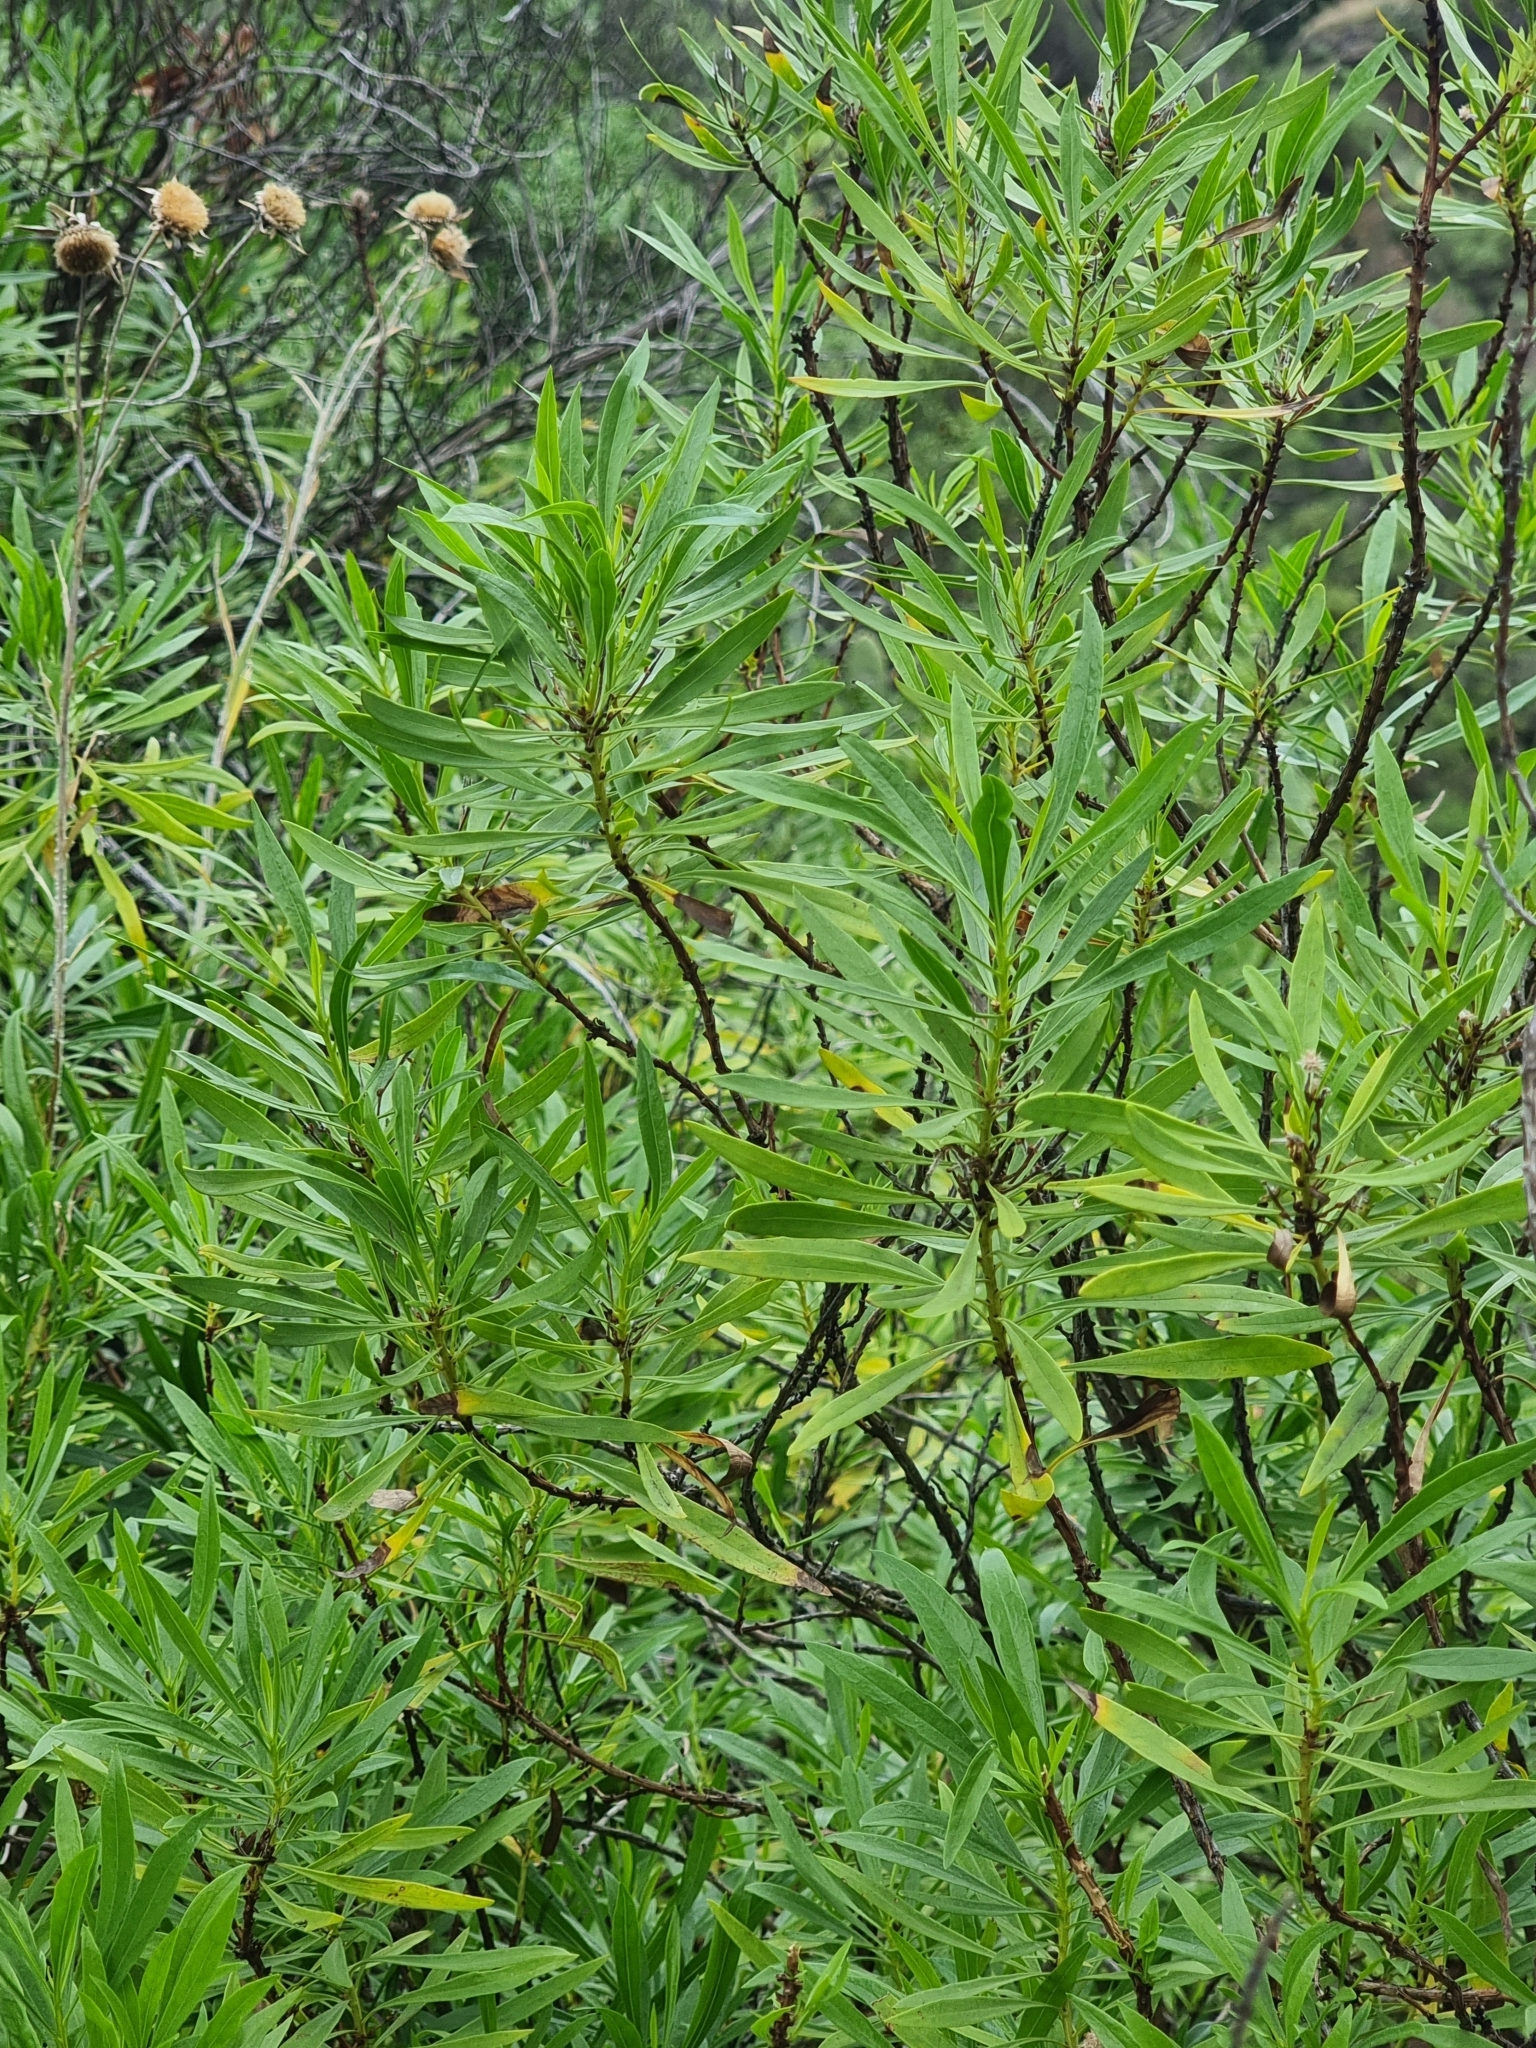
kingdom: Plantae
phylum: Tracheophyta
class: Magnoliopsida
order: Lamiales
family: Plantaginaceae
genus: Globularia
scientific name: Globularia salicina
